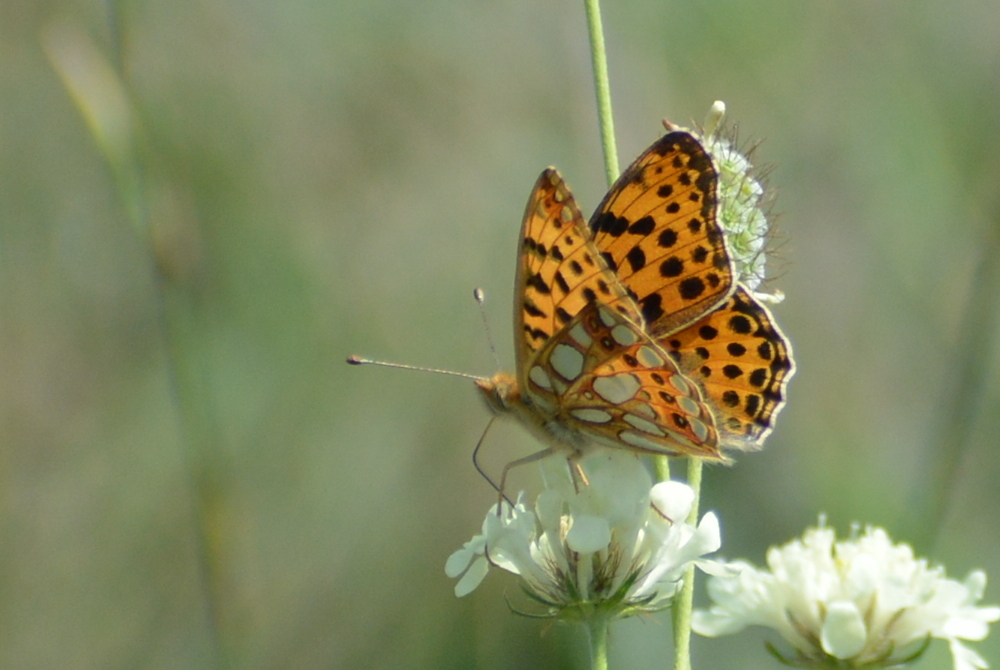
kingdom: Animalia
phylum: Arthropoda
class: Insecta
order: Lepidoptera
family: Nymphalidae
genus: Issoria
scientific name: Issoria lathonia
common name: Queen of spain fritillary
